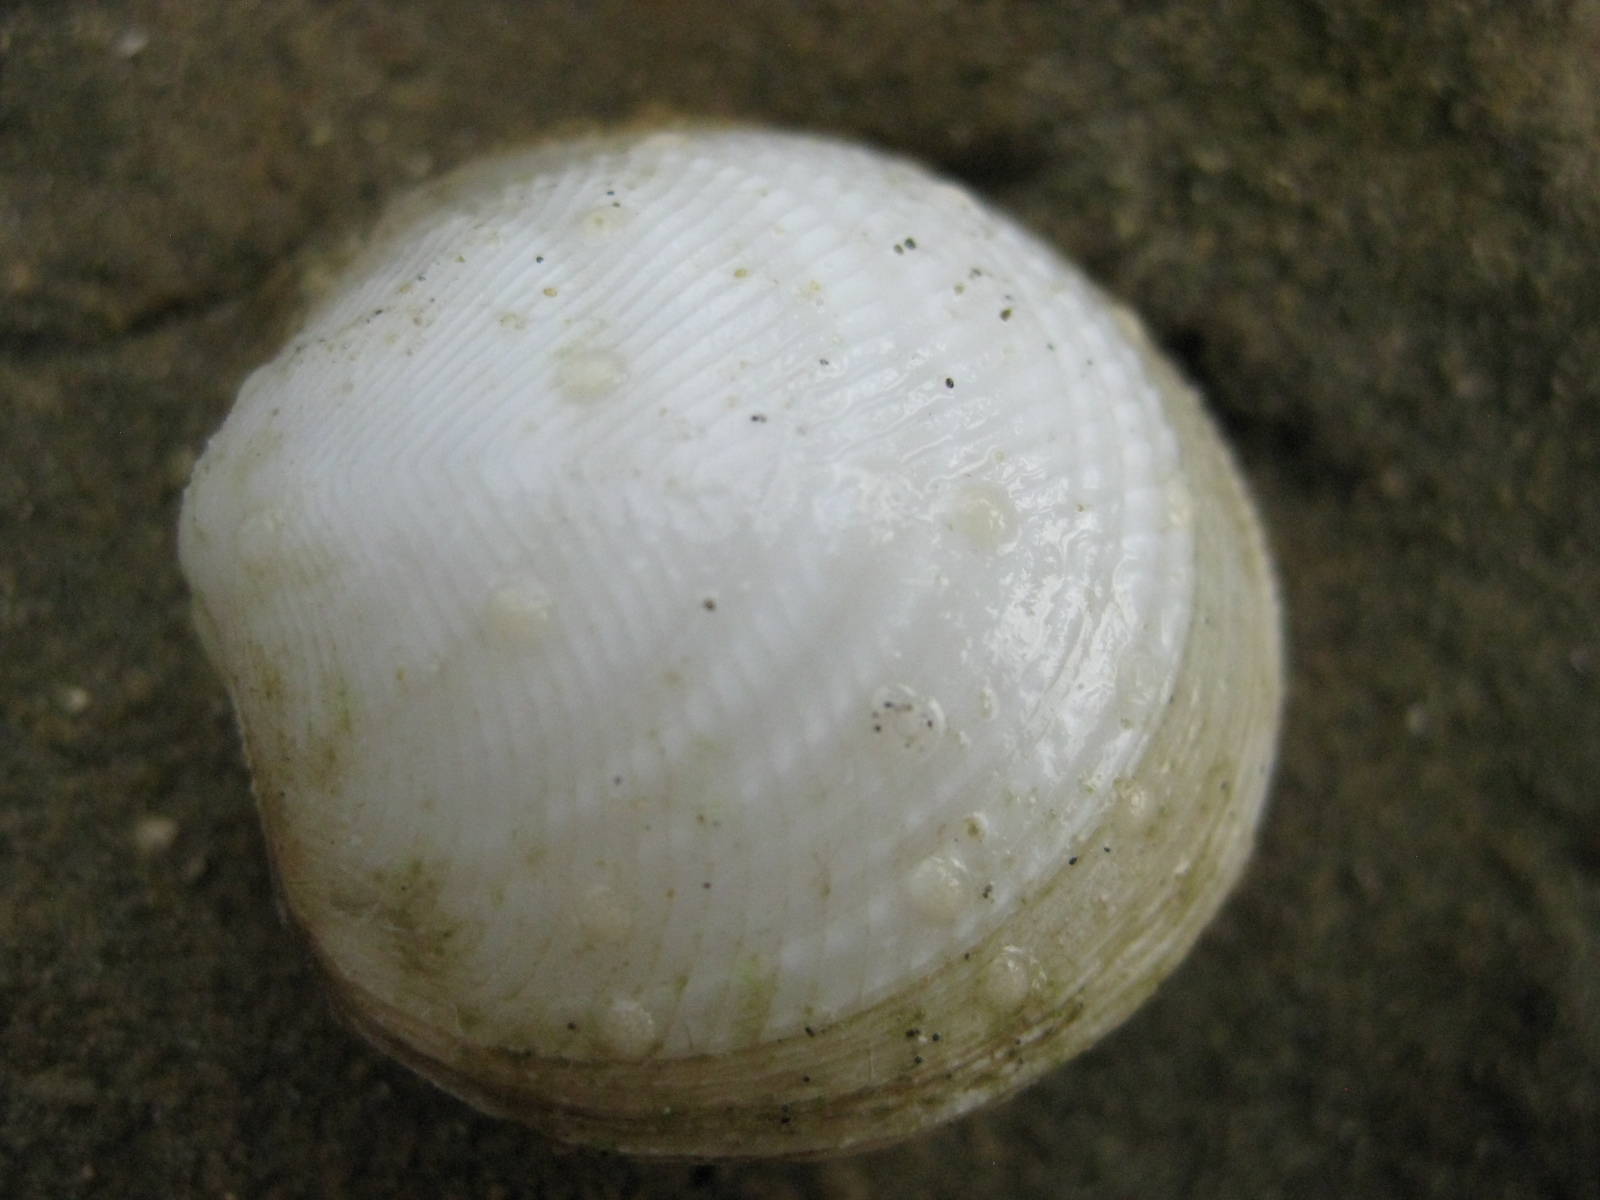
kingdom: Animalia
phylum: Mollusca
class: Bivalvia
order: Lucinida
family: Lucinidae
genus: Divalucina
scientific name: Divalucina cumingi
